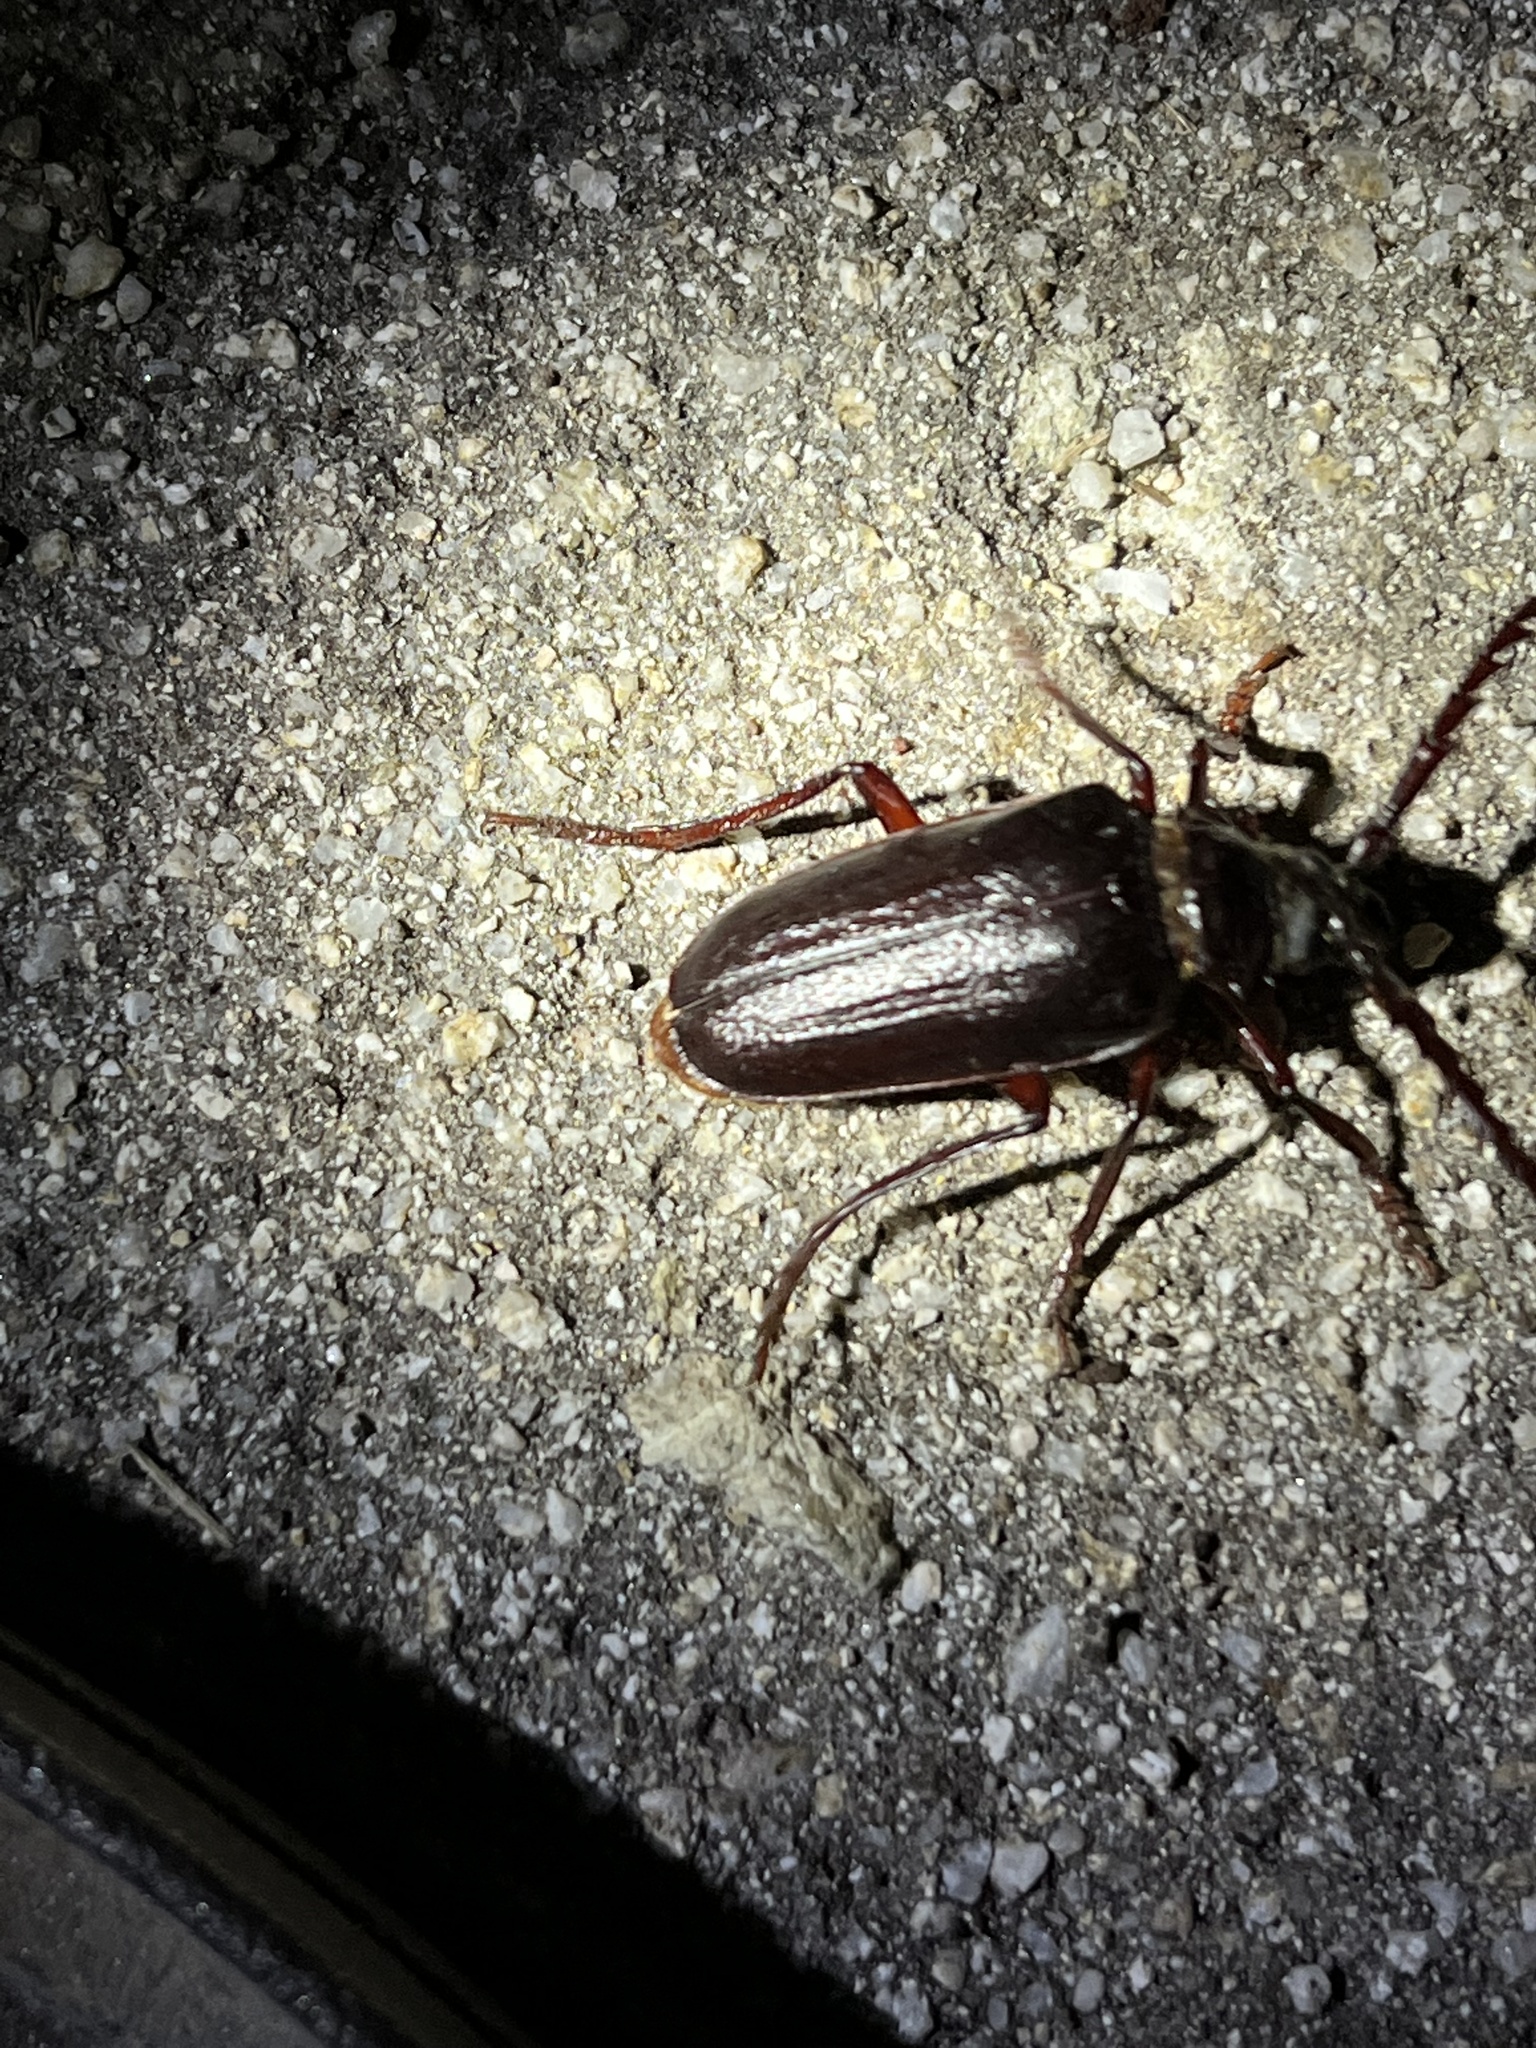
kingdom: Animalia
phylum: Arthropoda
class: Insecta
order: Coleoptera
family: Cerambycidae
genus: Prionus
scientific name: Prionus californicus
